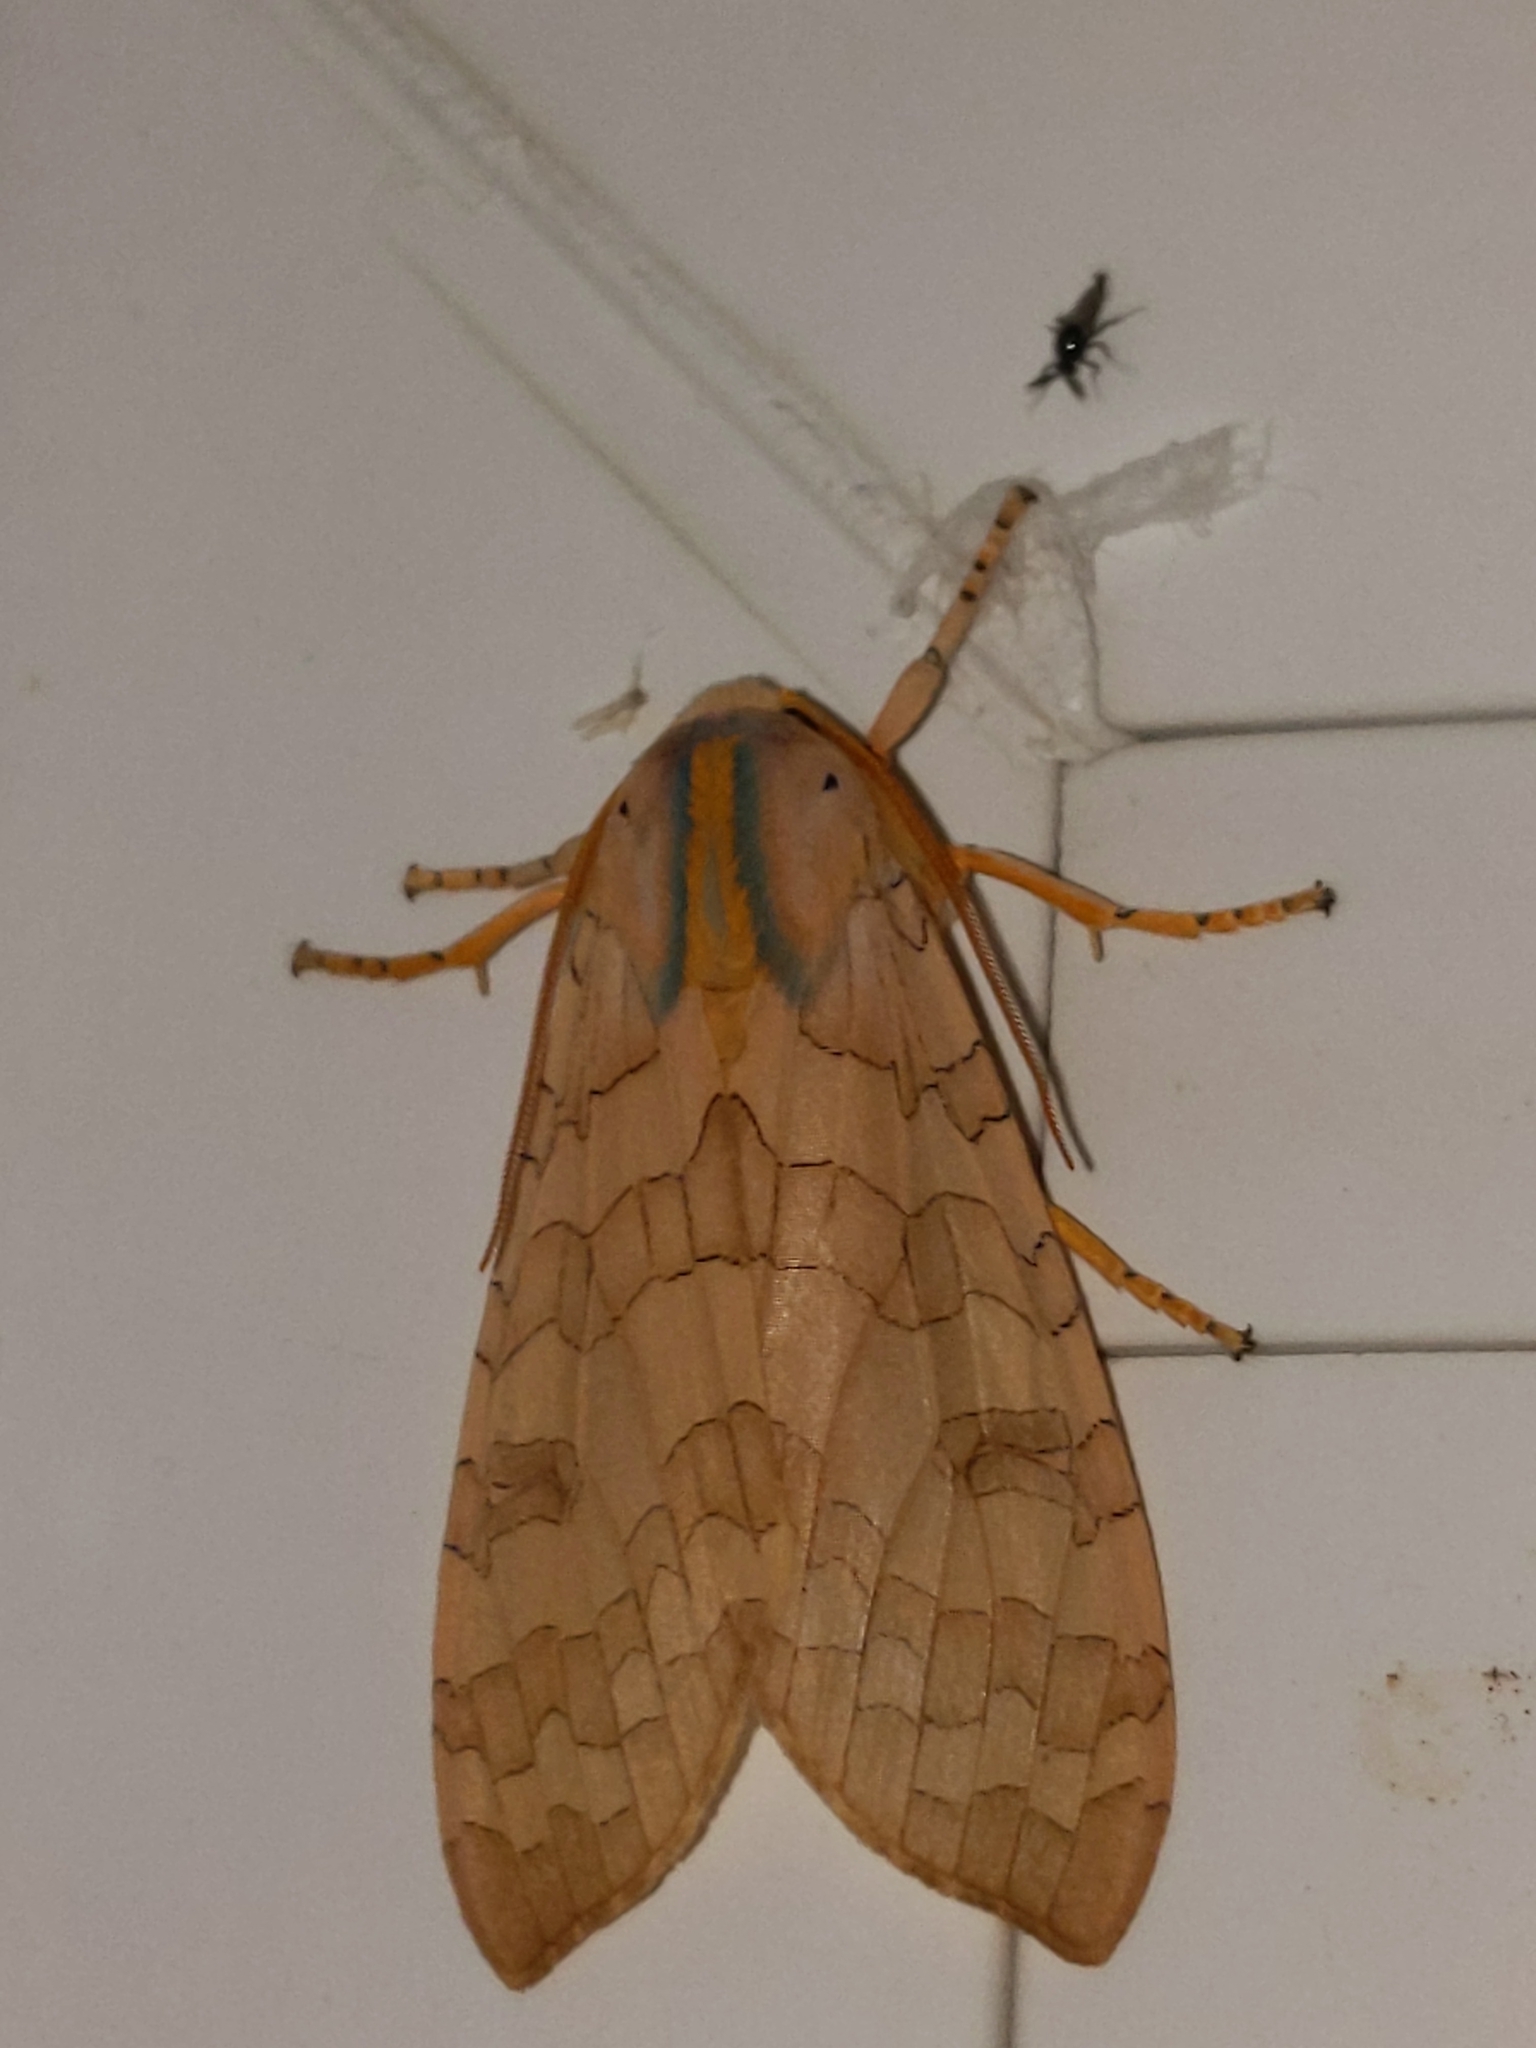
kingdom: Animalia
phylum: Arthropoda
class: Insecta
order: Lepidoptera
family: Erebidae
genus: Halysidota
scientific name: Halysidota
